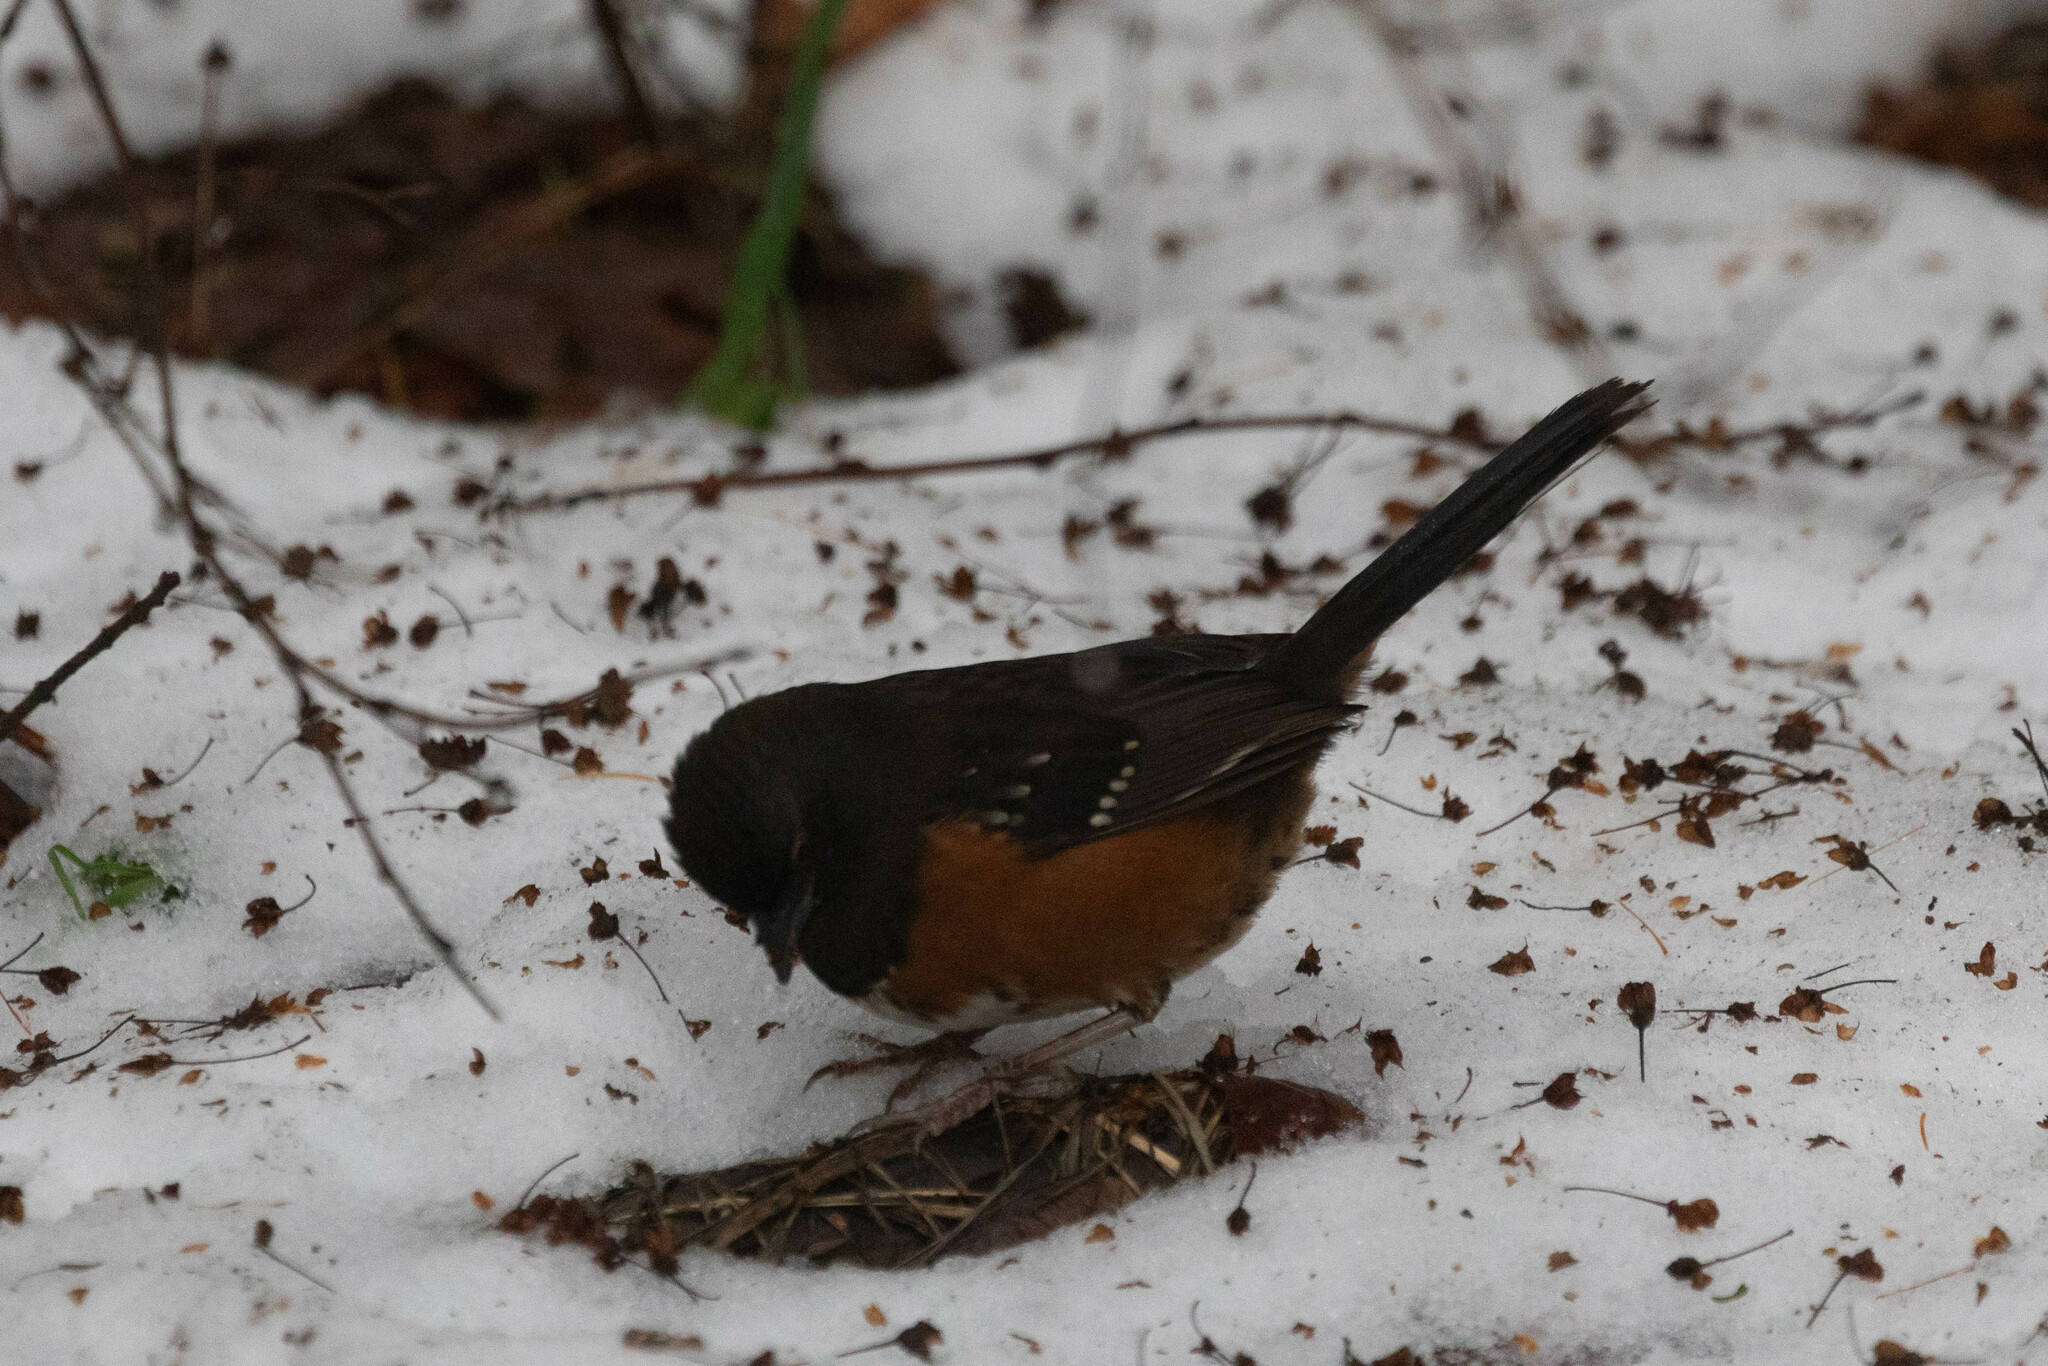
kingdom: Animalia
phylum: Chordata
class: Aves
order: Passeriformes
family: Passerellidae
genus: Pipilo
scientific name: Pipilo maculatus
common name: Spotted towhee
